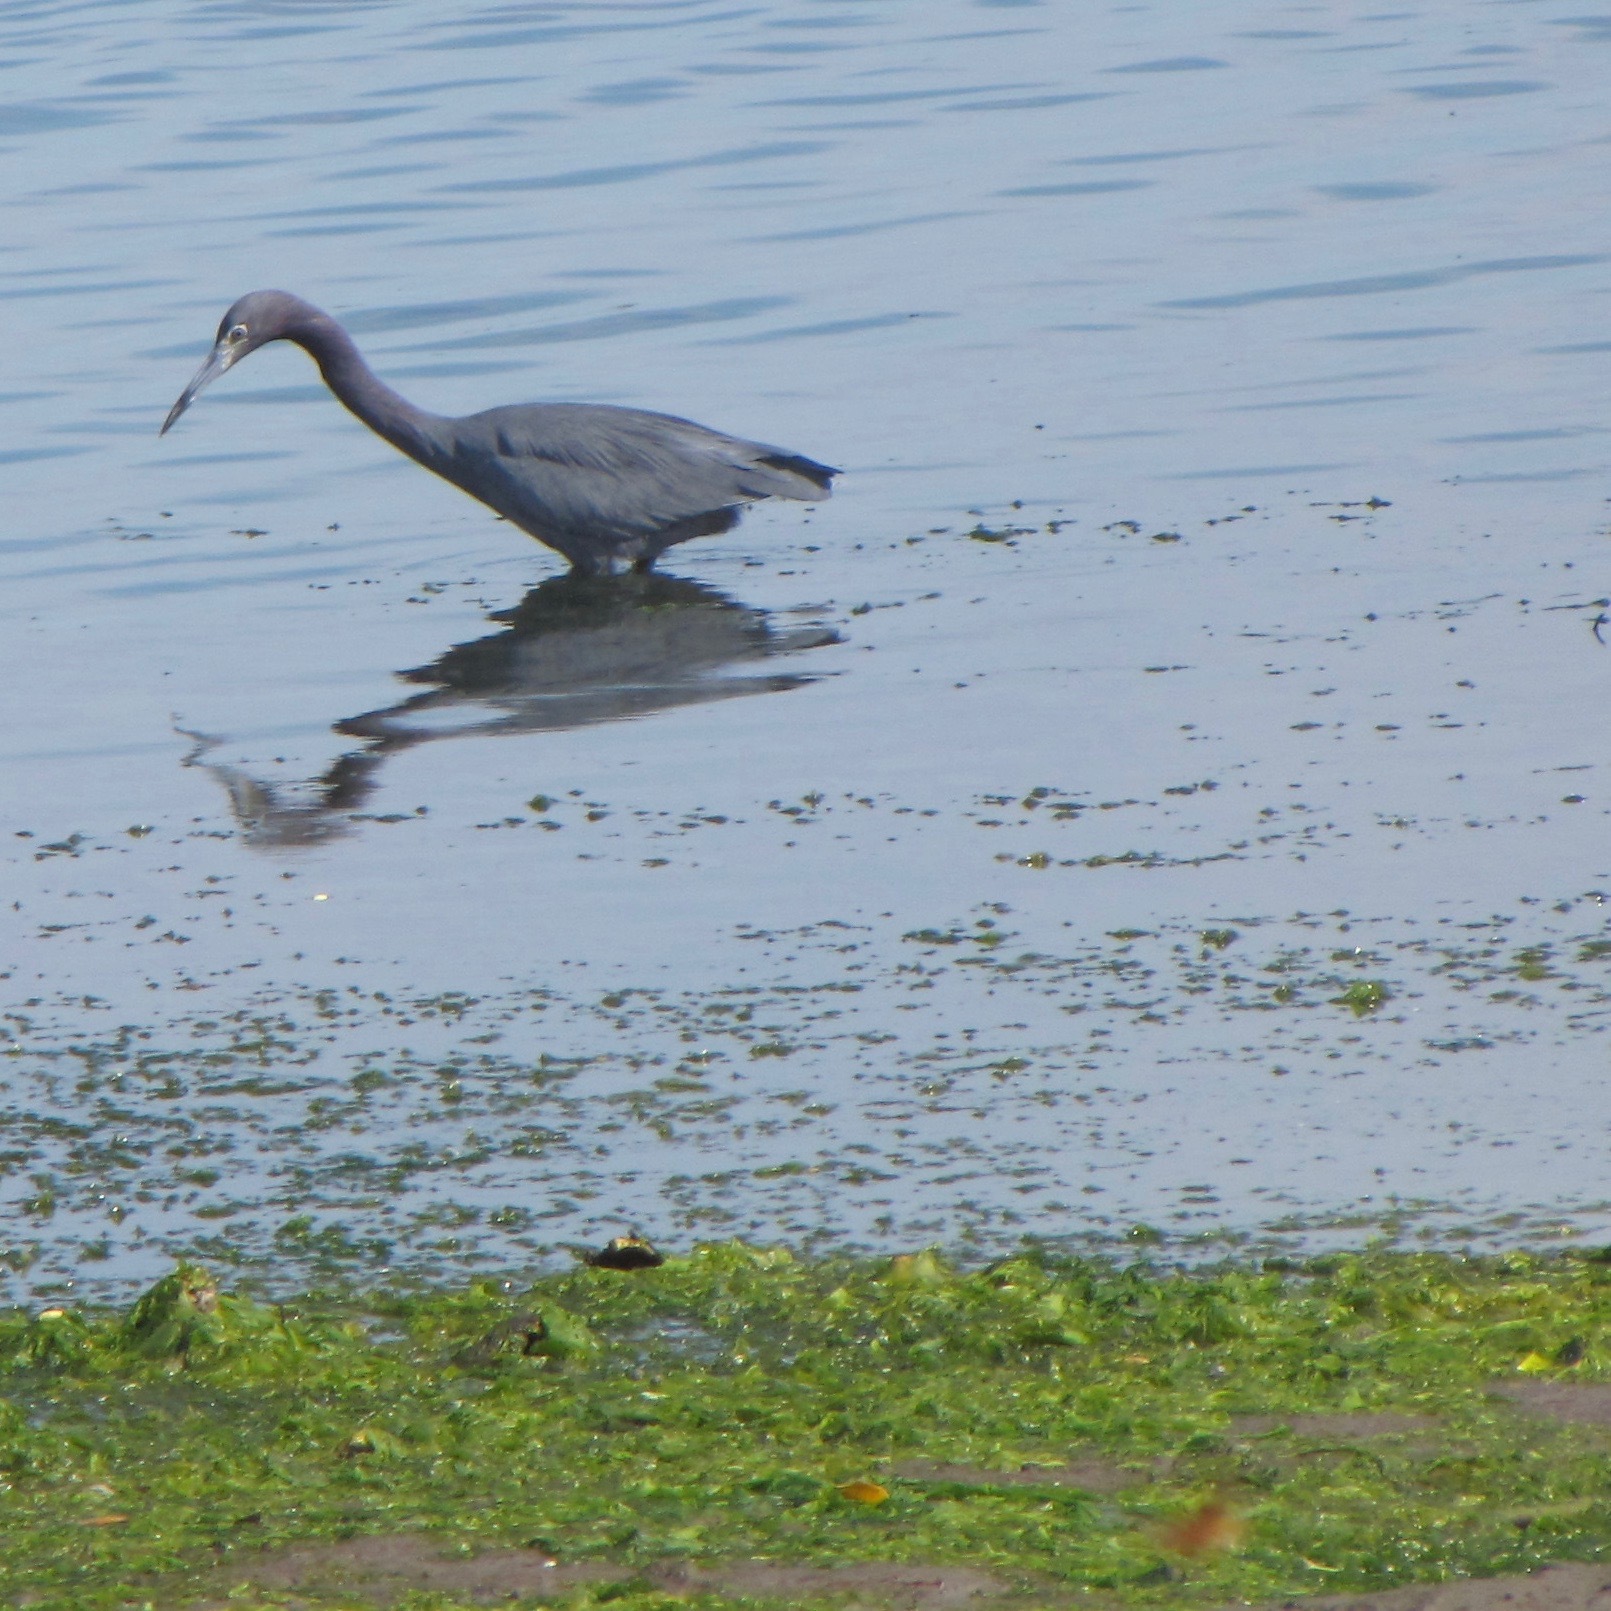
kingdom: Animalia
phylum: Chordata
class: Aves
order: Pelecaniformes
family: Ardeidae
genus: Egretta
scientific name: Egretta caerulea
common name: Little blue heron
